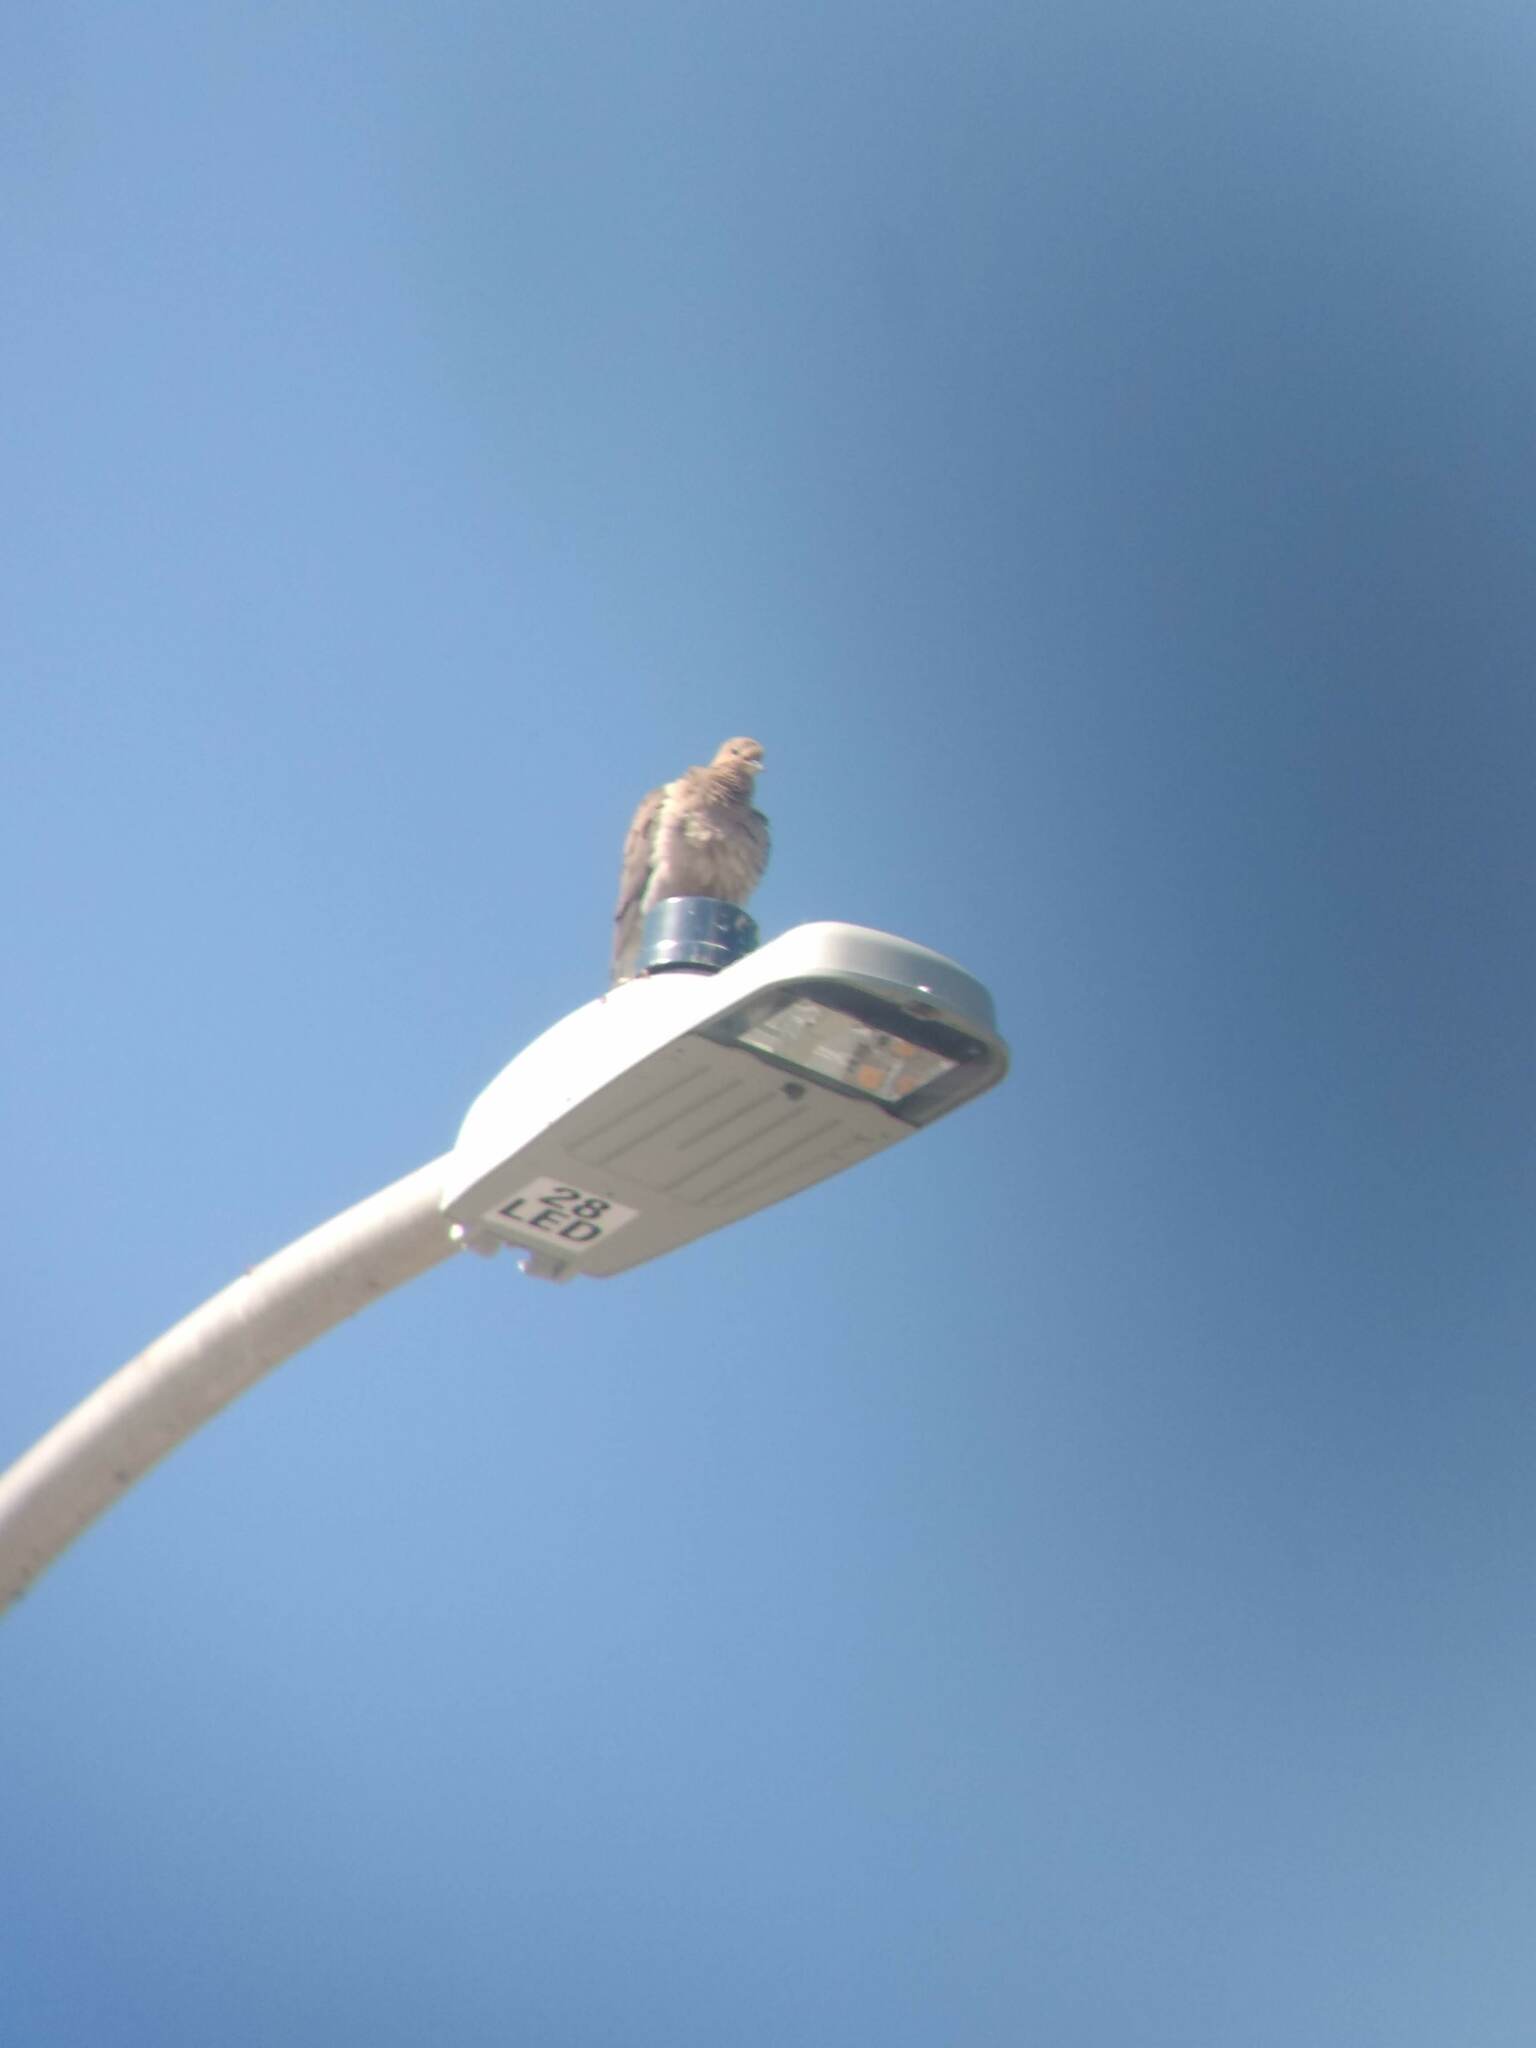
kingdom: Animalia
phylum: Chordata
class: Aves
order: Columbiformes
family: Columbidae
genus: Zenaida
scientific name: Zenaida macroura
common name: Mourning dove
